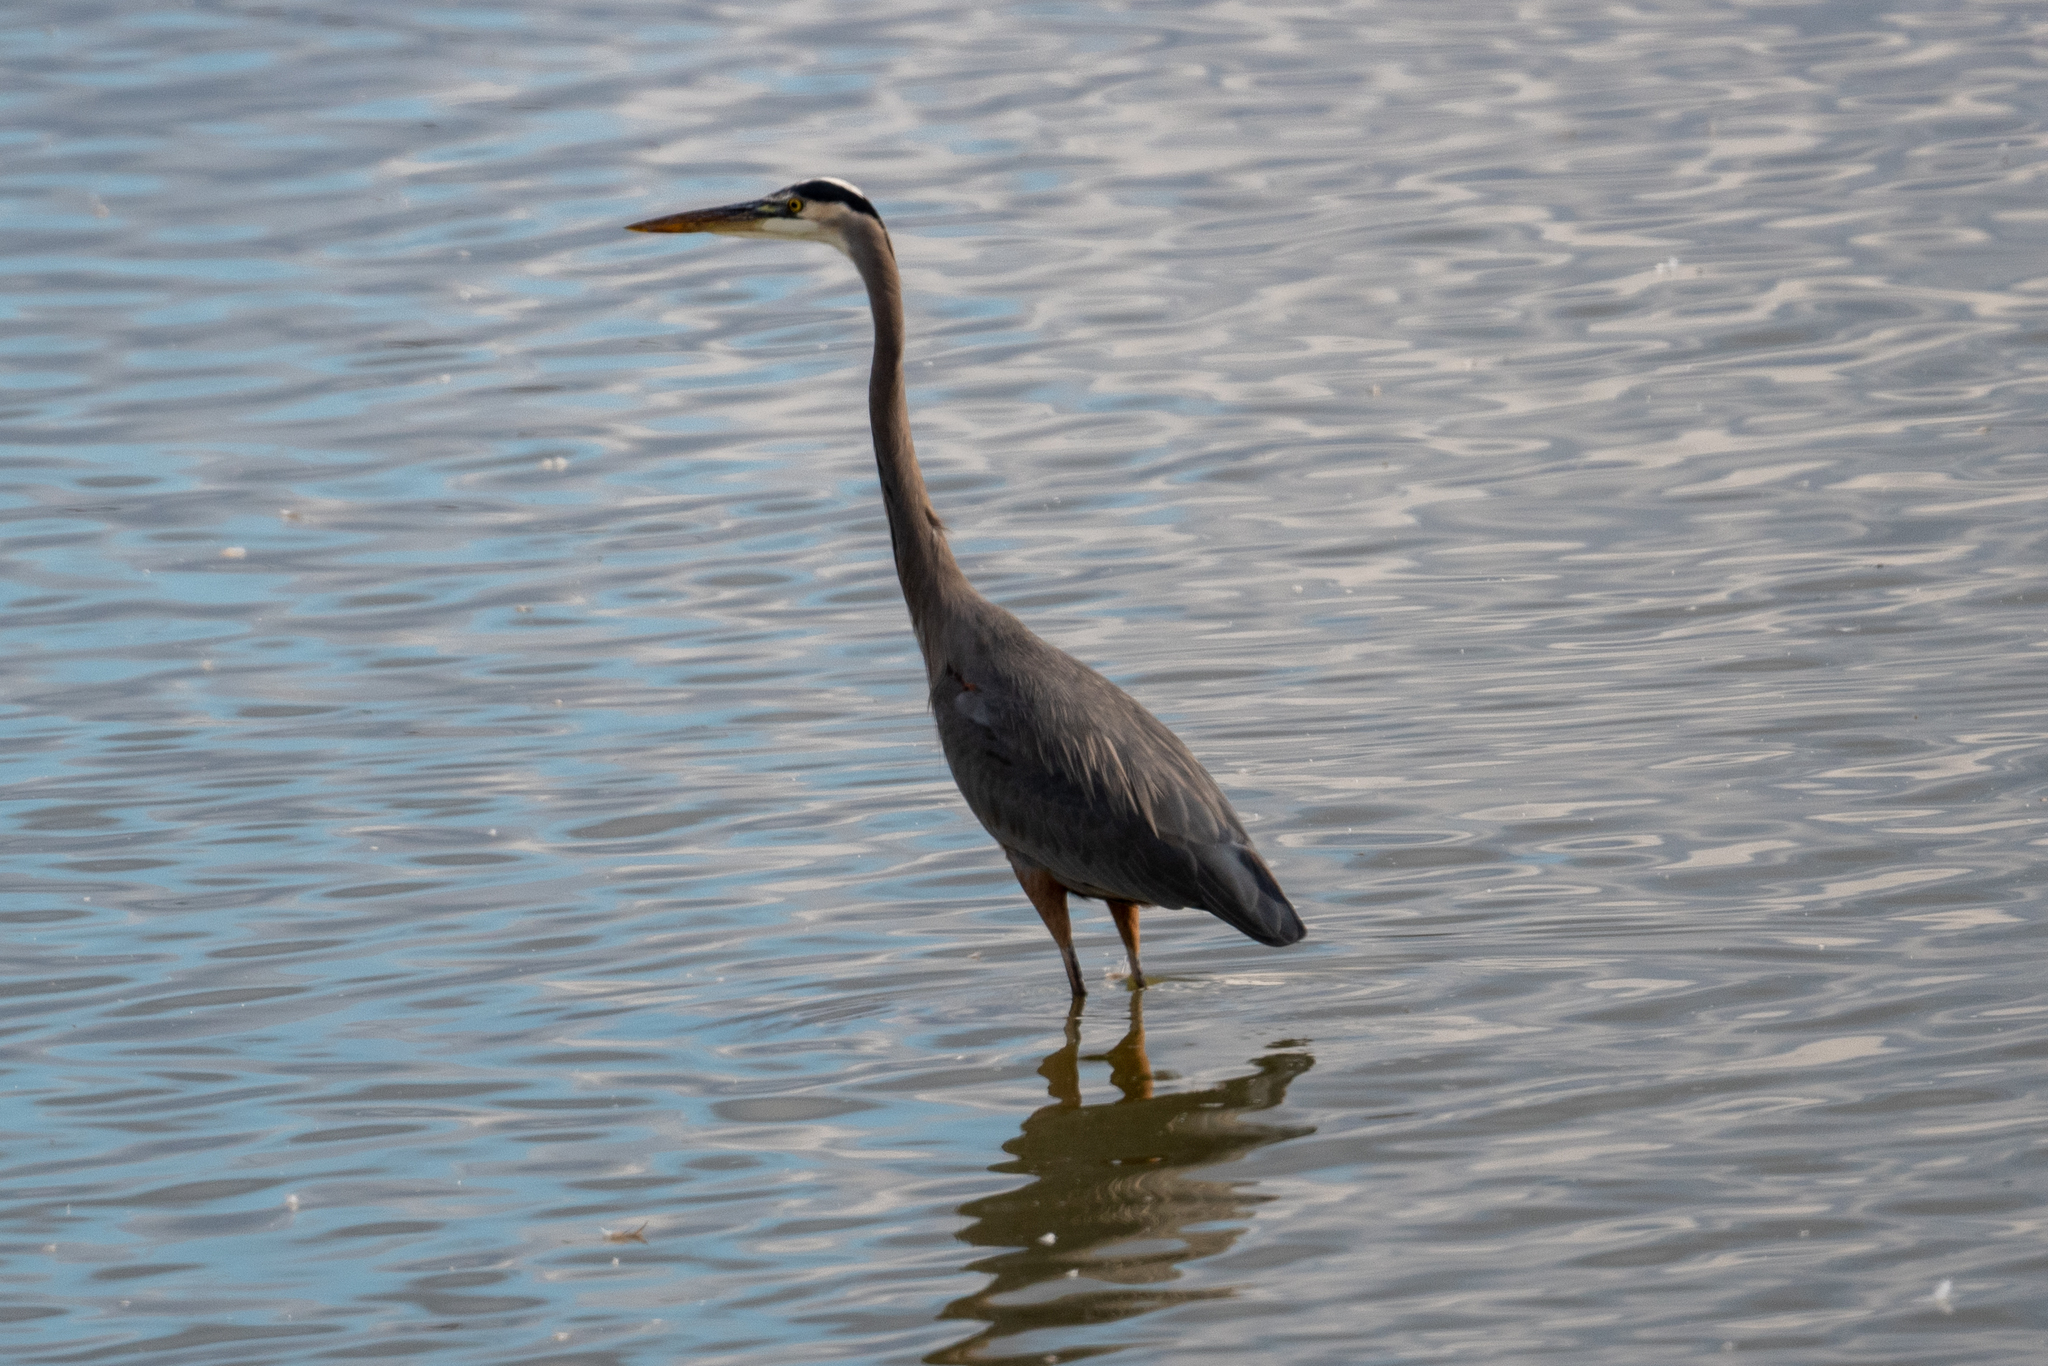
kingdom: Animalia
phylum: Chordata
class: Aves
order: Pelecaniformes
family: Ardeidae
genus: Ardea
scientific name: Ardea herodias
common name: Great blue heron
